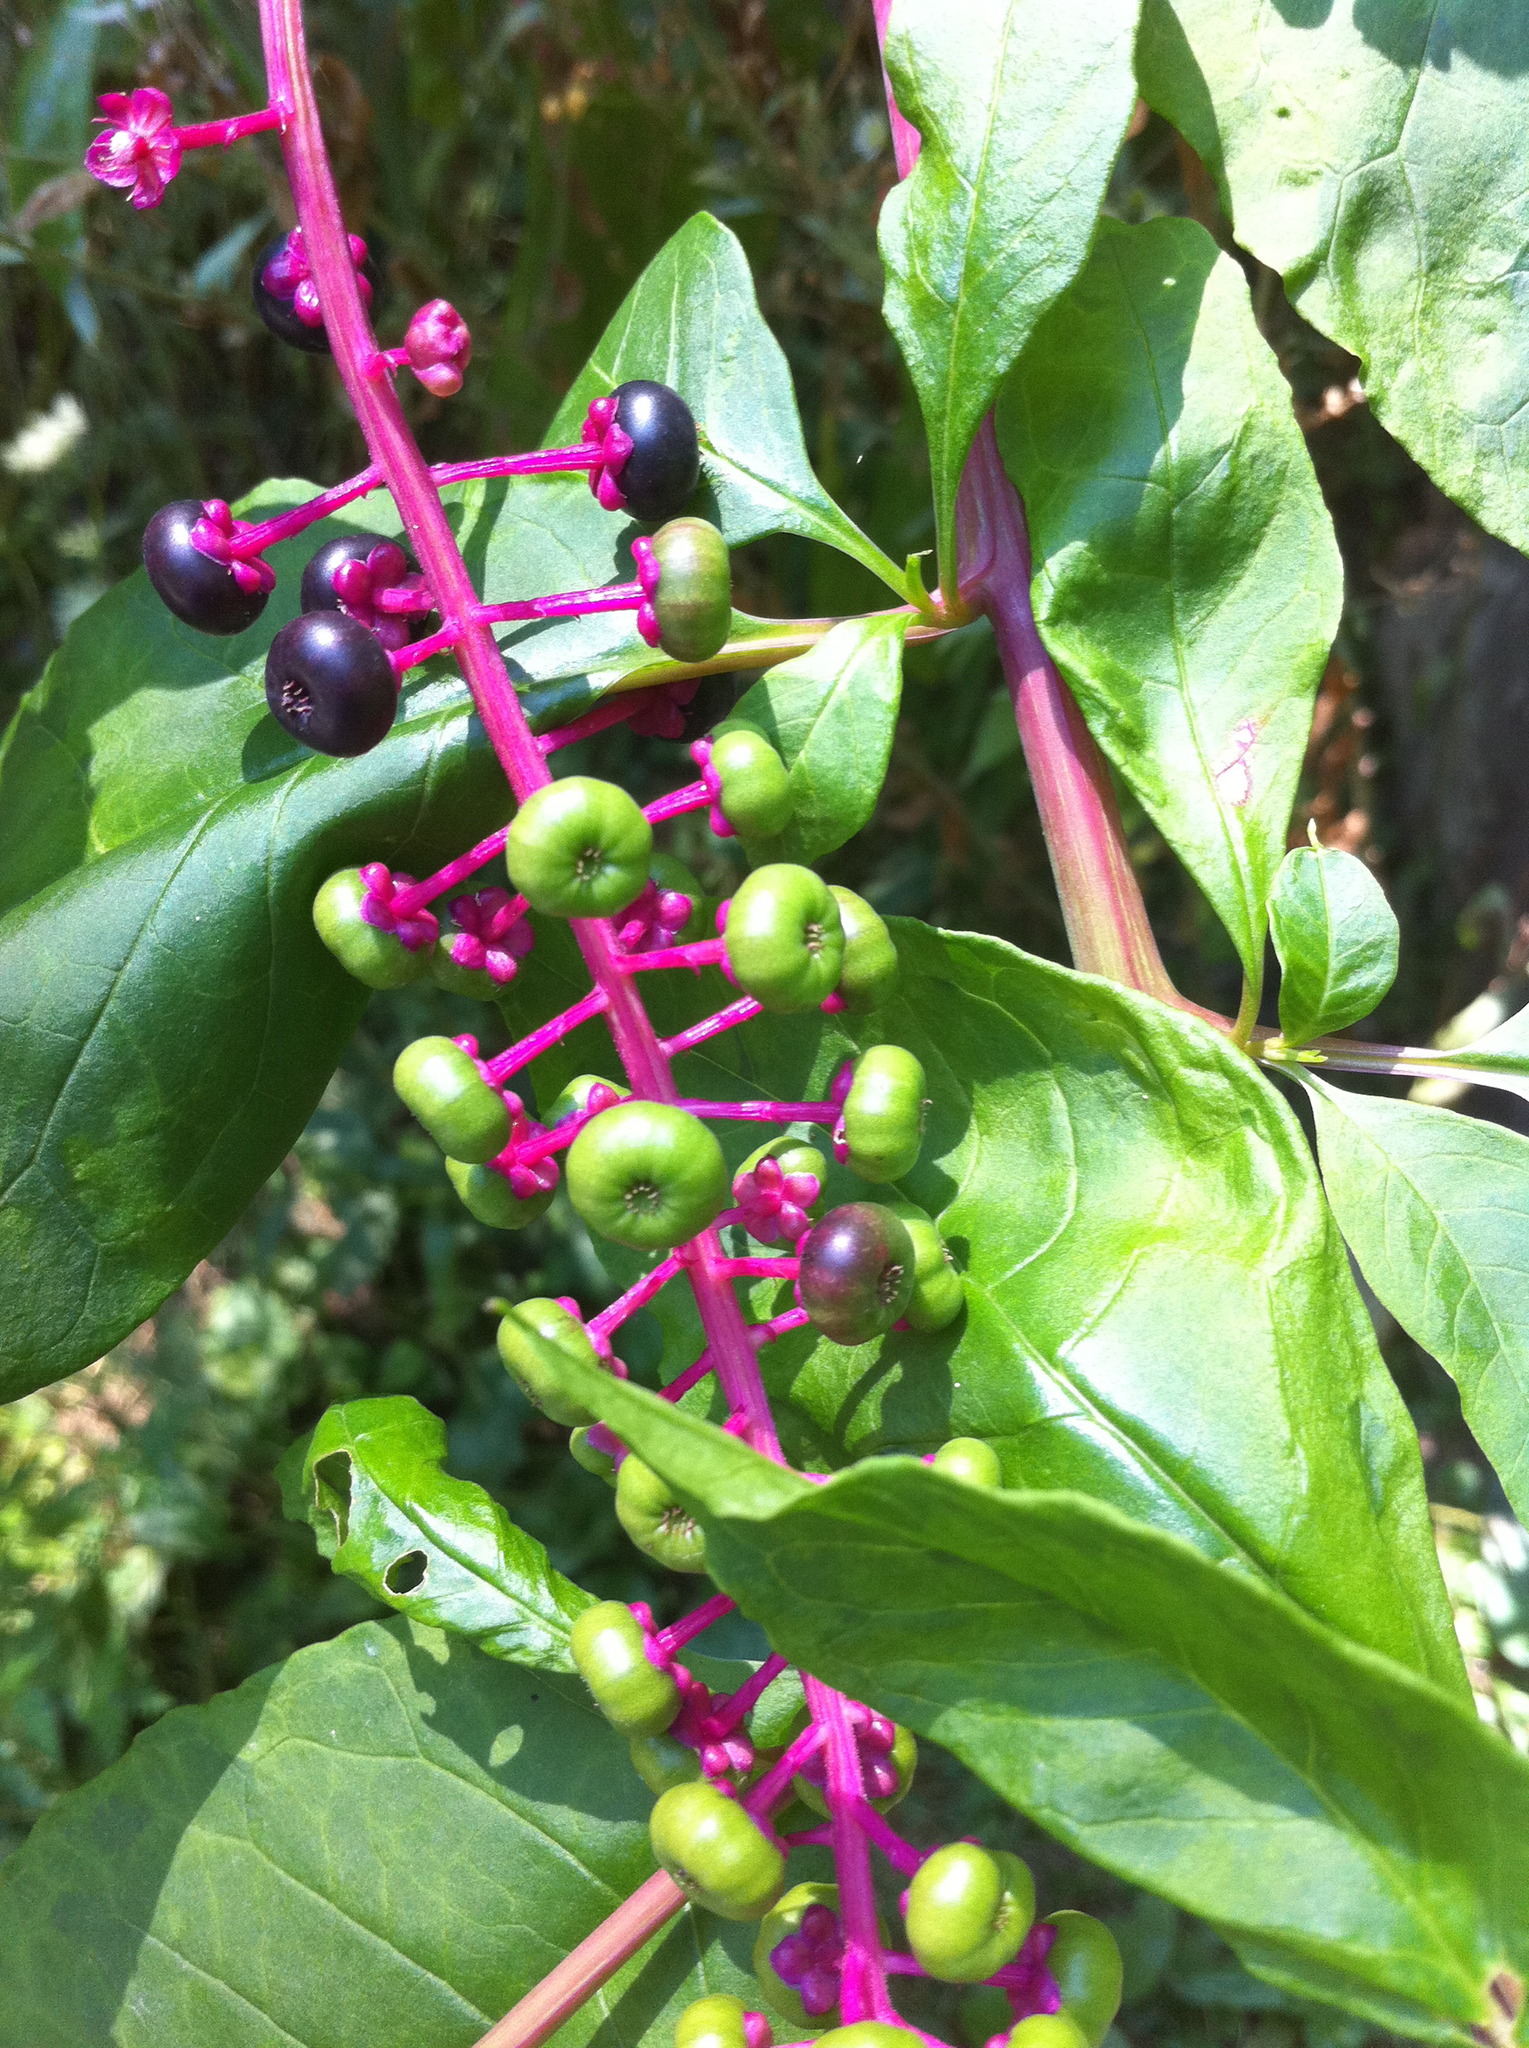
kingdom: Plantae
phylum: Tracheophyta
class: Magnoliopsida
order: Caryophyllales
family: Phytolaccaceae
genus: Phytolacca
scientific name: Phytolacca americana
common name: American pokeweed
